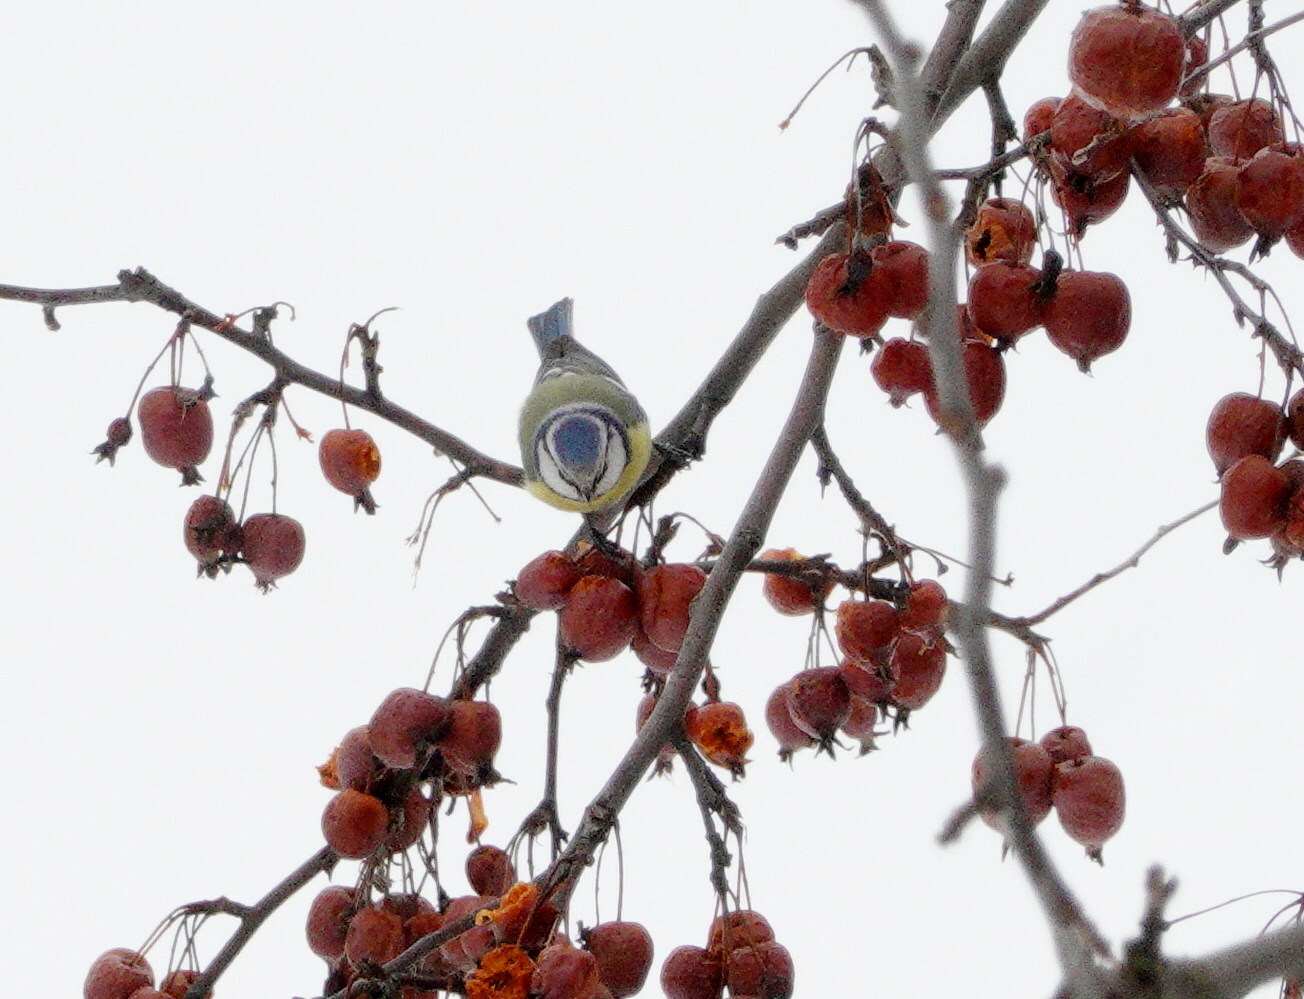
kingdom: Animalia
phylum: Chordata
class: Aves
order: Passeriformes
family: Paridae
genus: Cyanistes
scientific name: Cyanistes caeruleus
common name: Eurasian blue tit
